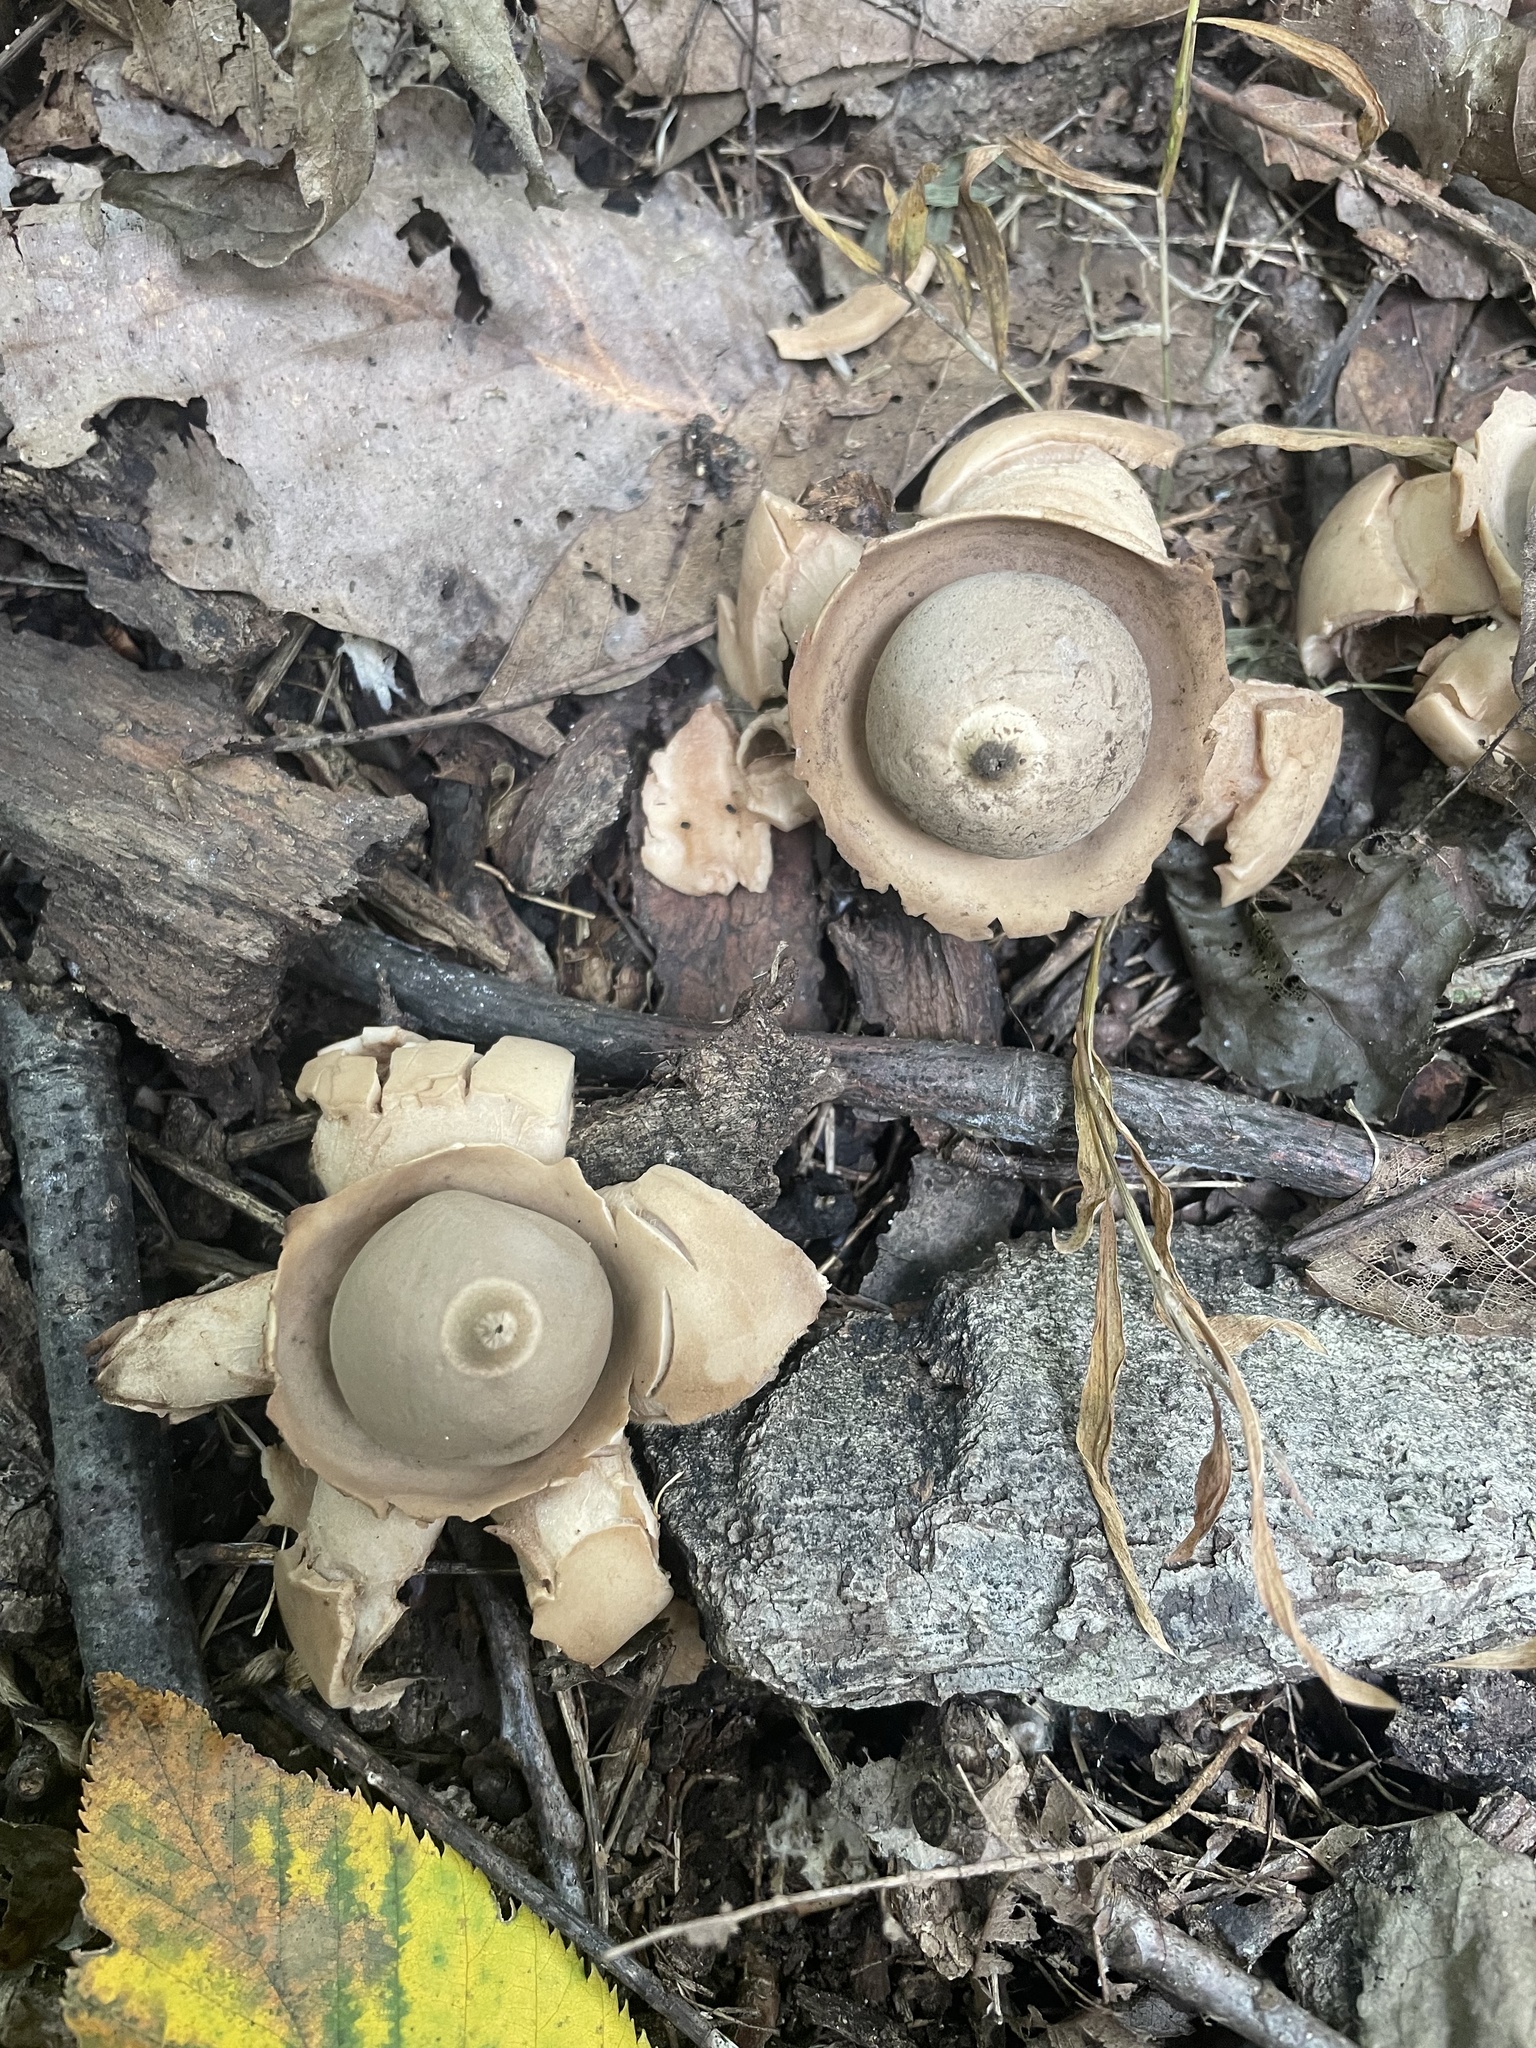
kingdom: Fungi
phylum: Basidiomycota
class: Agaricomycetes
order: Geastrales
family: Geastraceae
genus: Geastrum
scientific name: Geastrum saccatum
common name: Rounded earthstar
